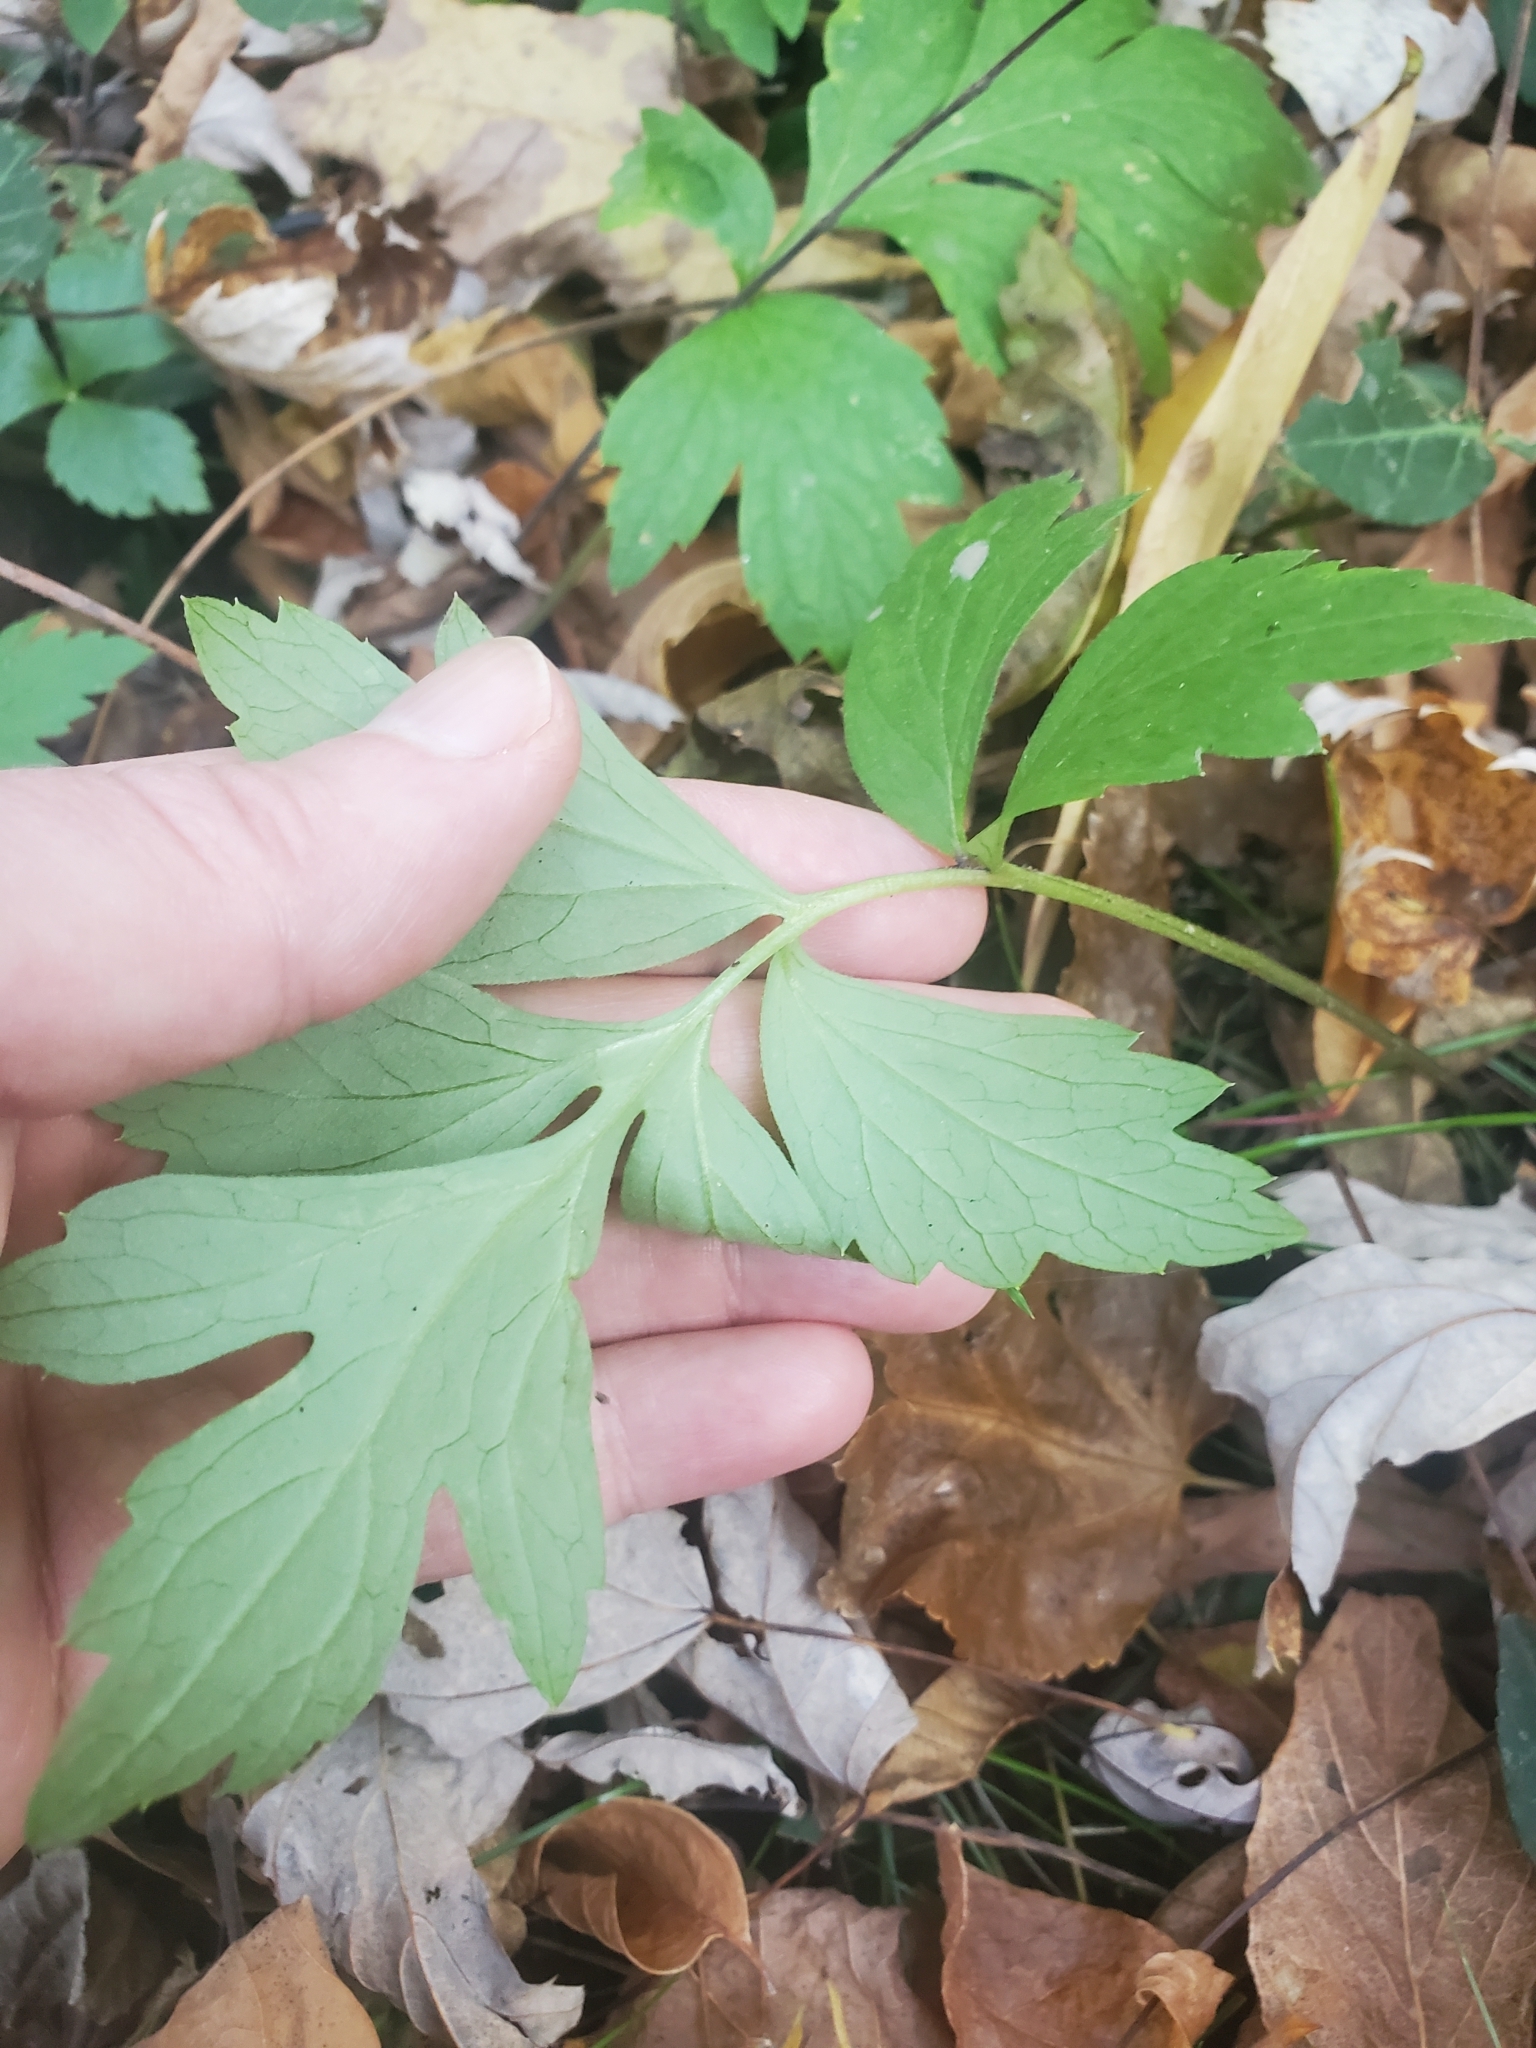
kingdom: Plantae
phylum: Tracheophyta
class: Magnoliopsida
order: Boraginales
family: Hydrophyllaceae
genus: Hydrophyllum
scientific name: Hydrophyllum virginianum
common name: Virginia waterleaf
